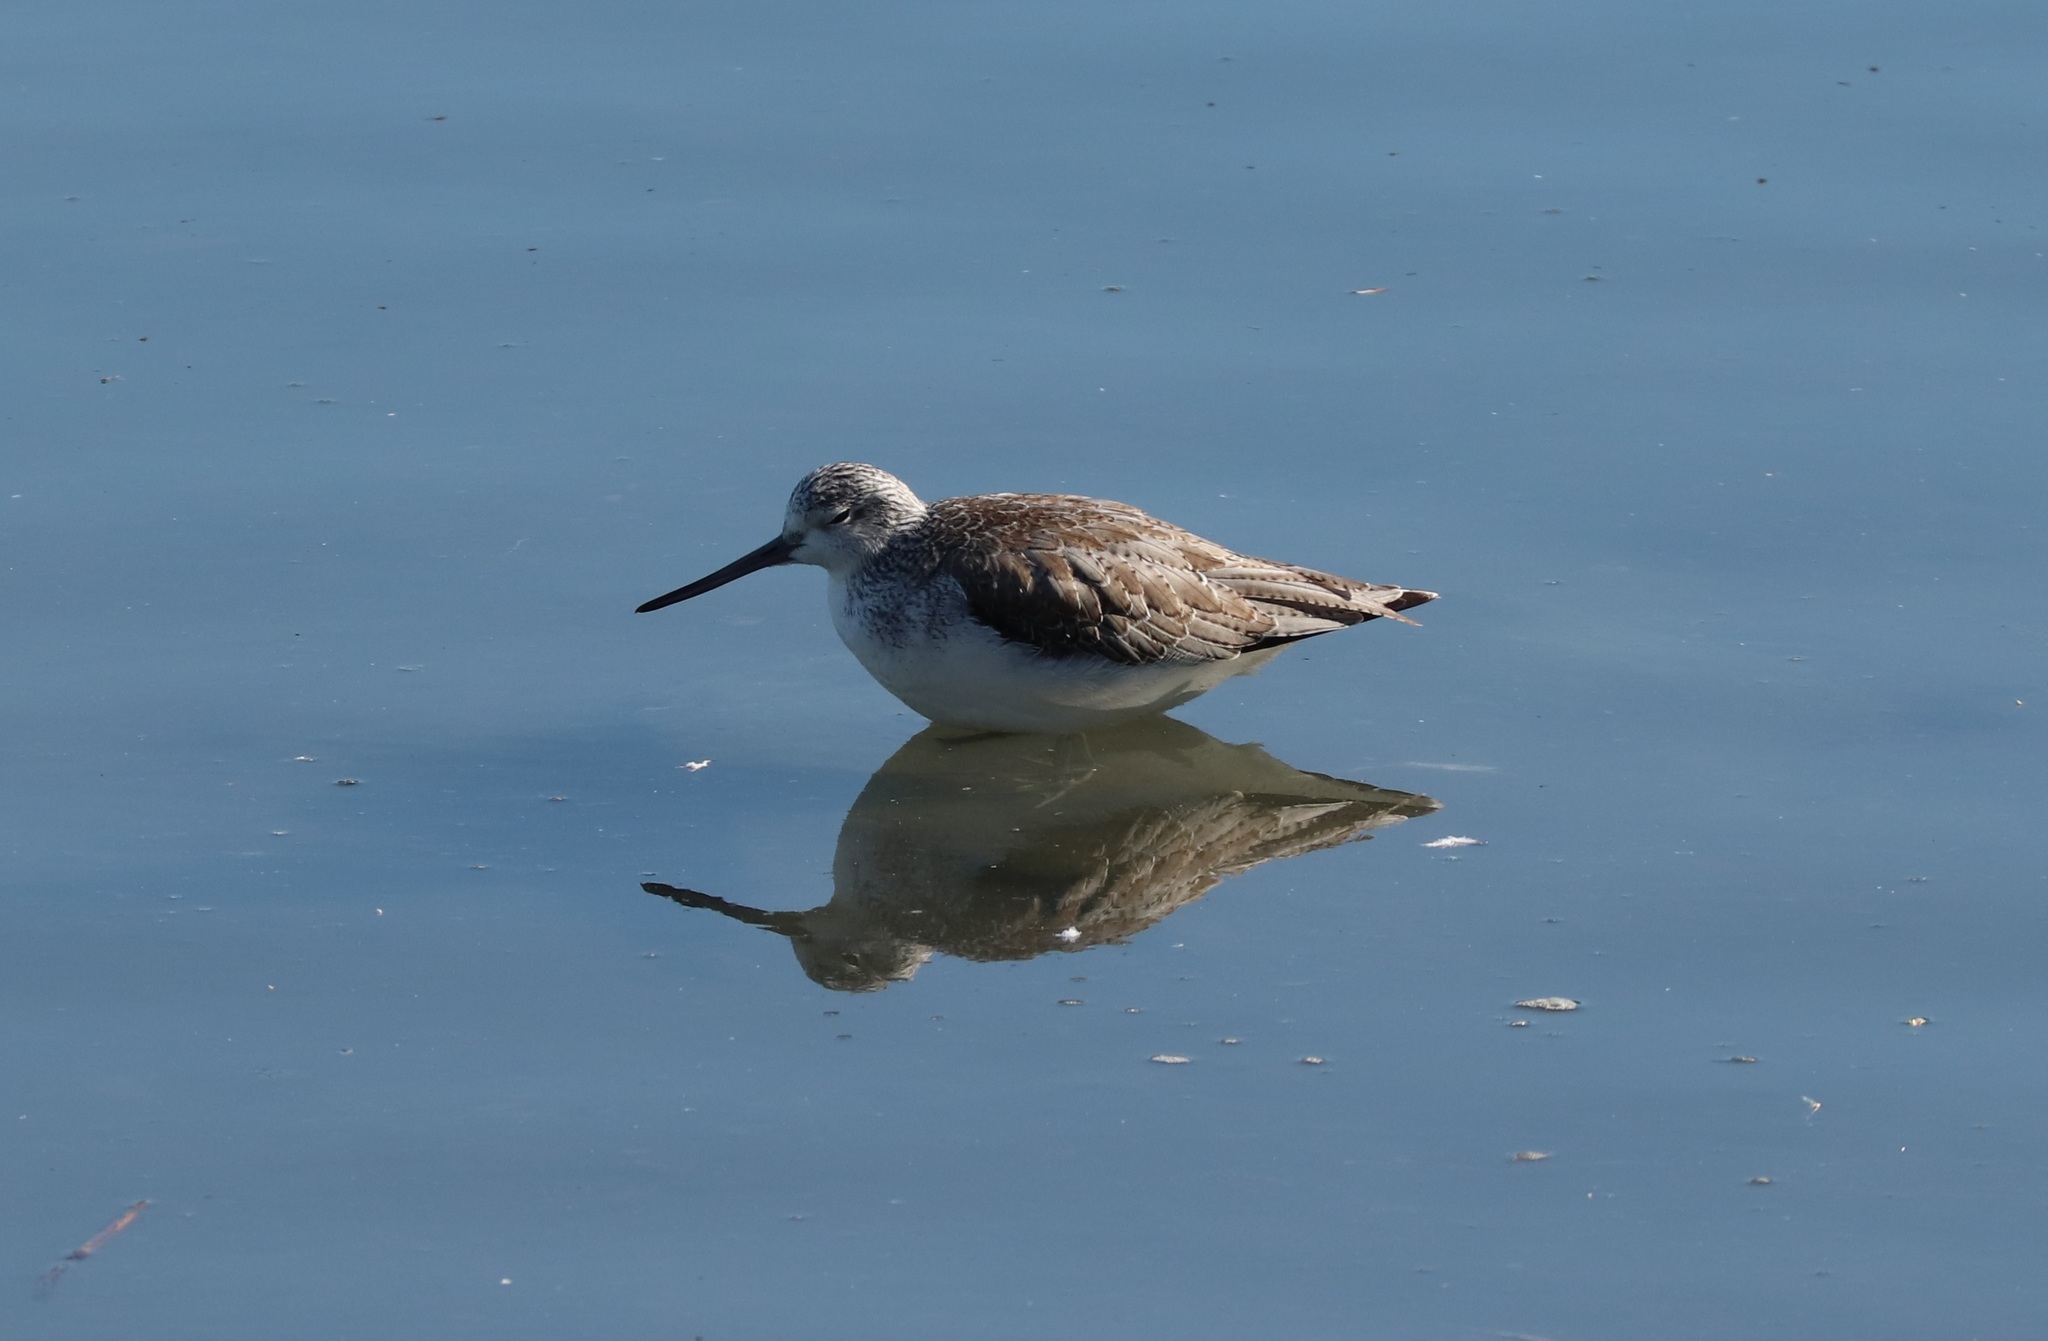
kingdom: Animalia
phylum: Chordata
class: Aves
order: Charadriiformes
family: Scolopacidae
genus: Tringa
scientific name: Tringa nebularia
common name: Common greenshank
